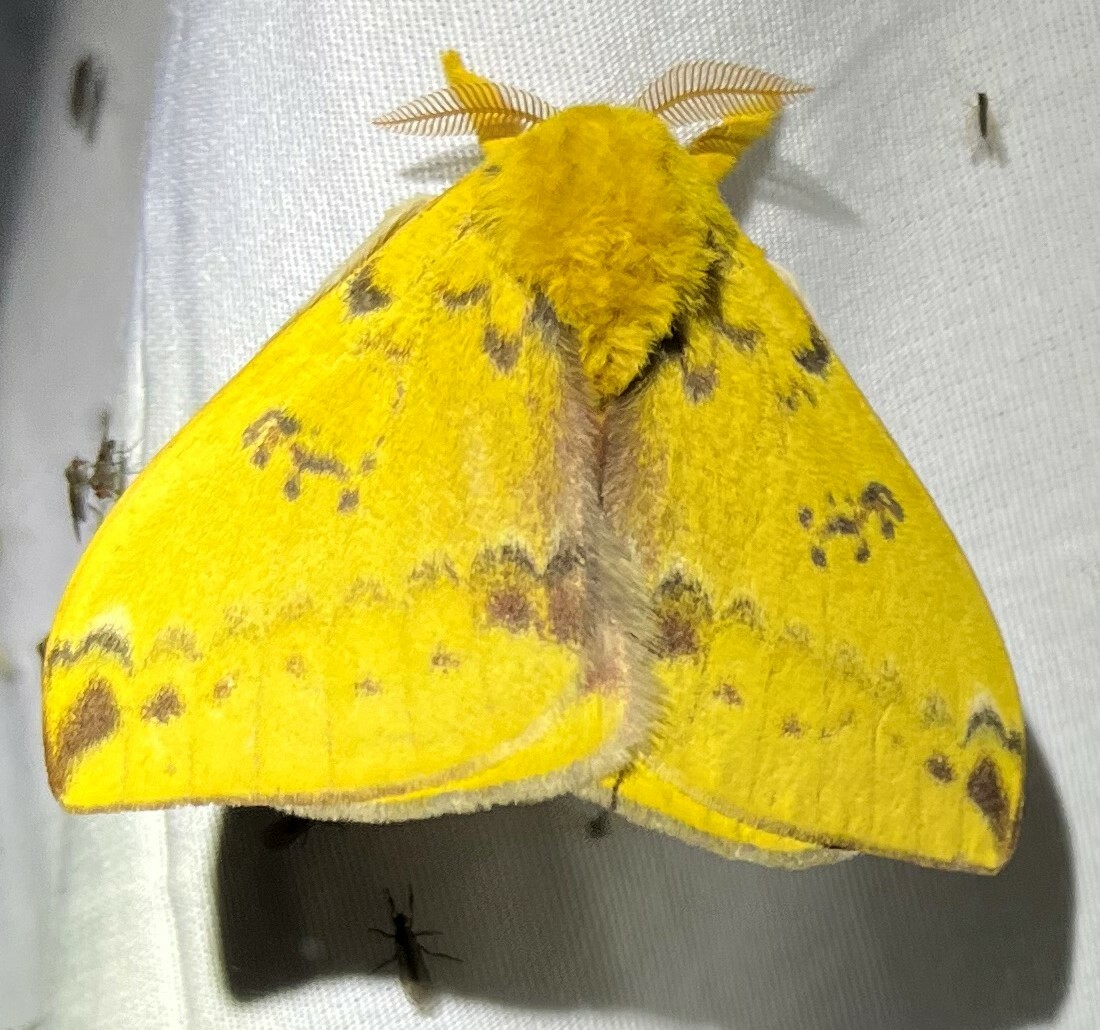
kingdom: Animalia
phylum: Arthropoda
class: Insecta
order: Lepidoptera
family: Saturniidae
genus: Automeris
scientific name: Automeris io
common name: Io moth
